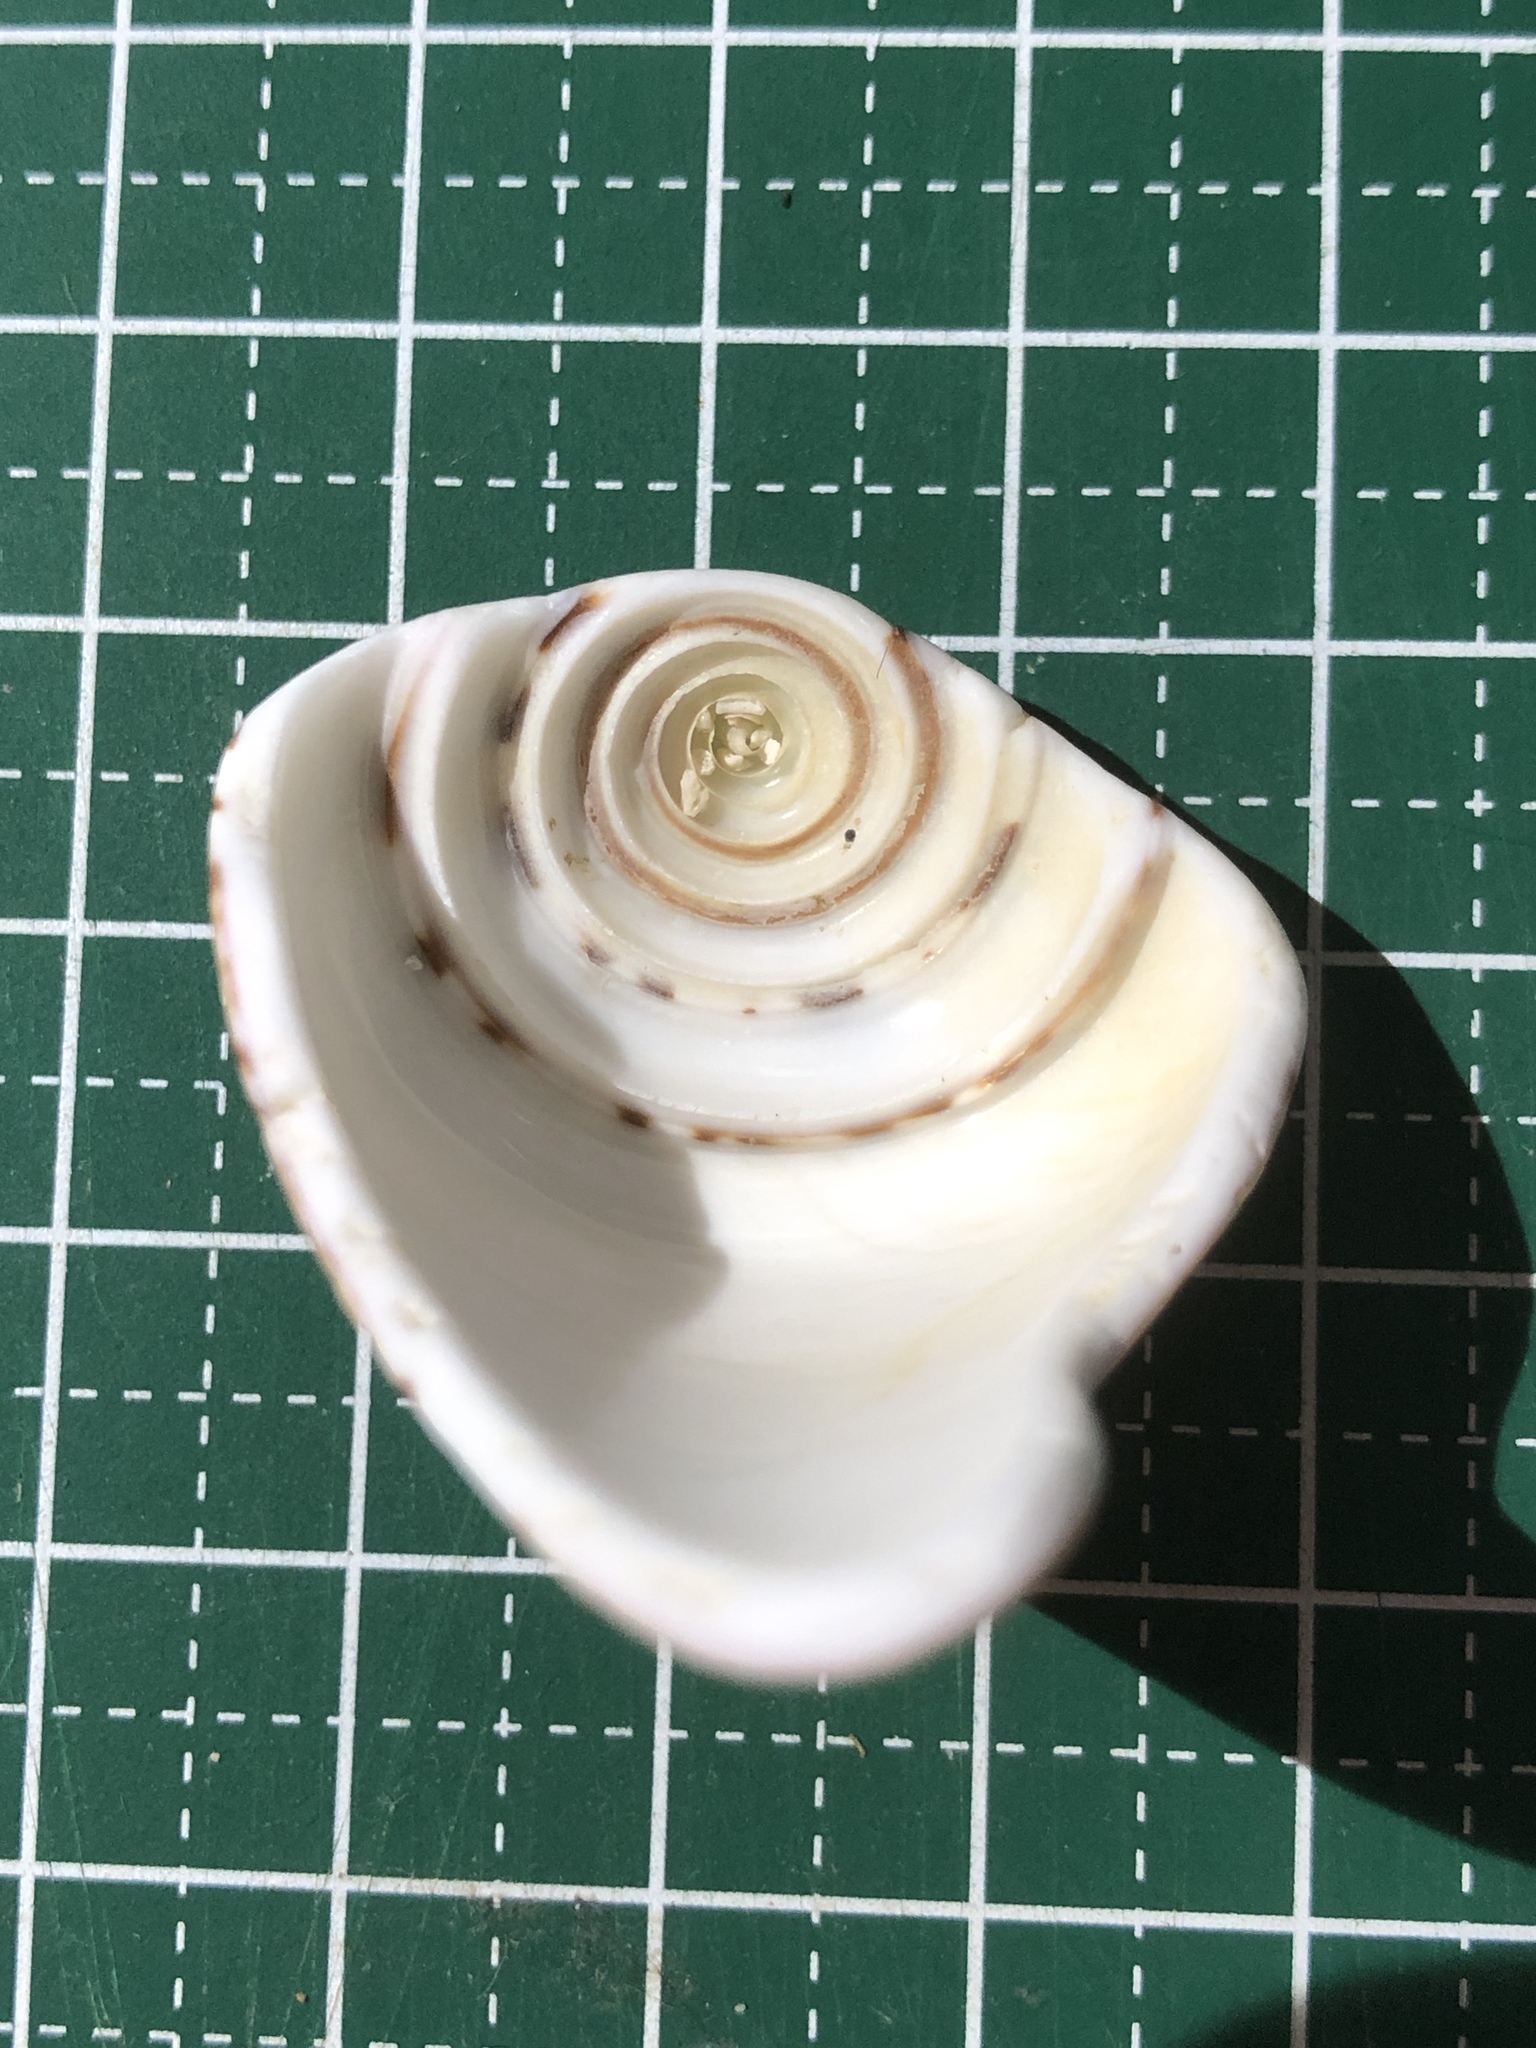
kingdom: Animalia
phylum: Mollusca
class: Gastropoda
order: Neogastropoda
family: Conidae
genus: Conus
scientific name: Conus capitaneus
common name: Captain cone
